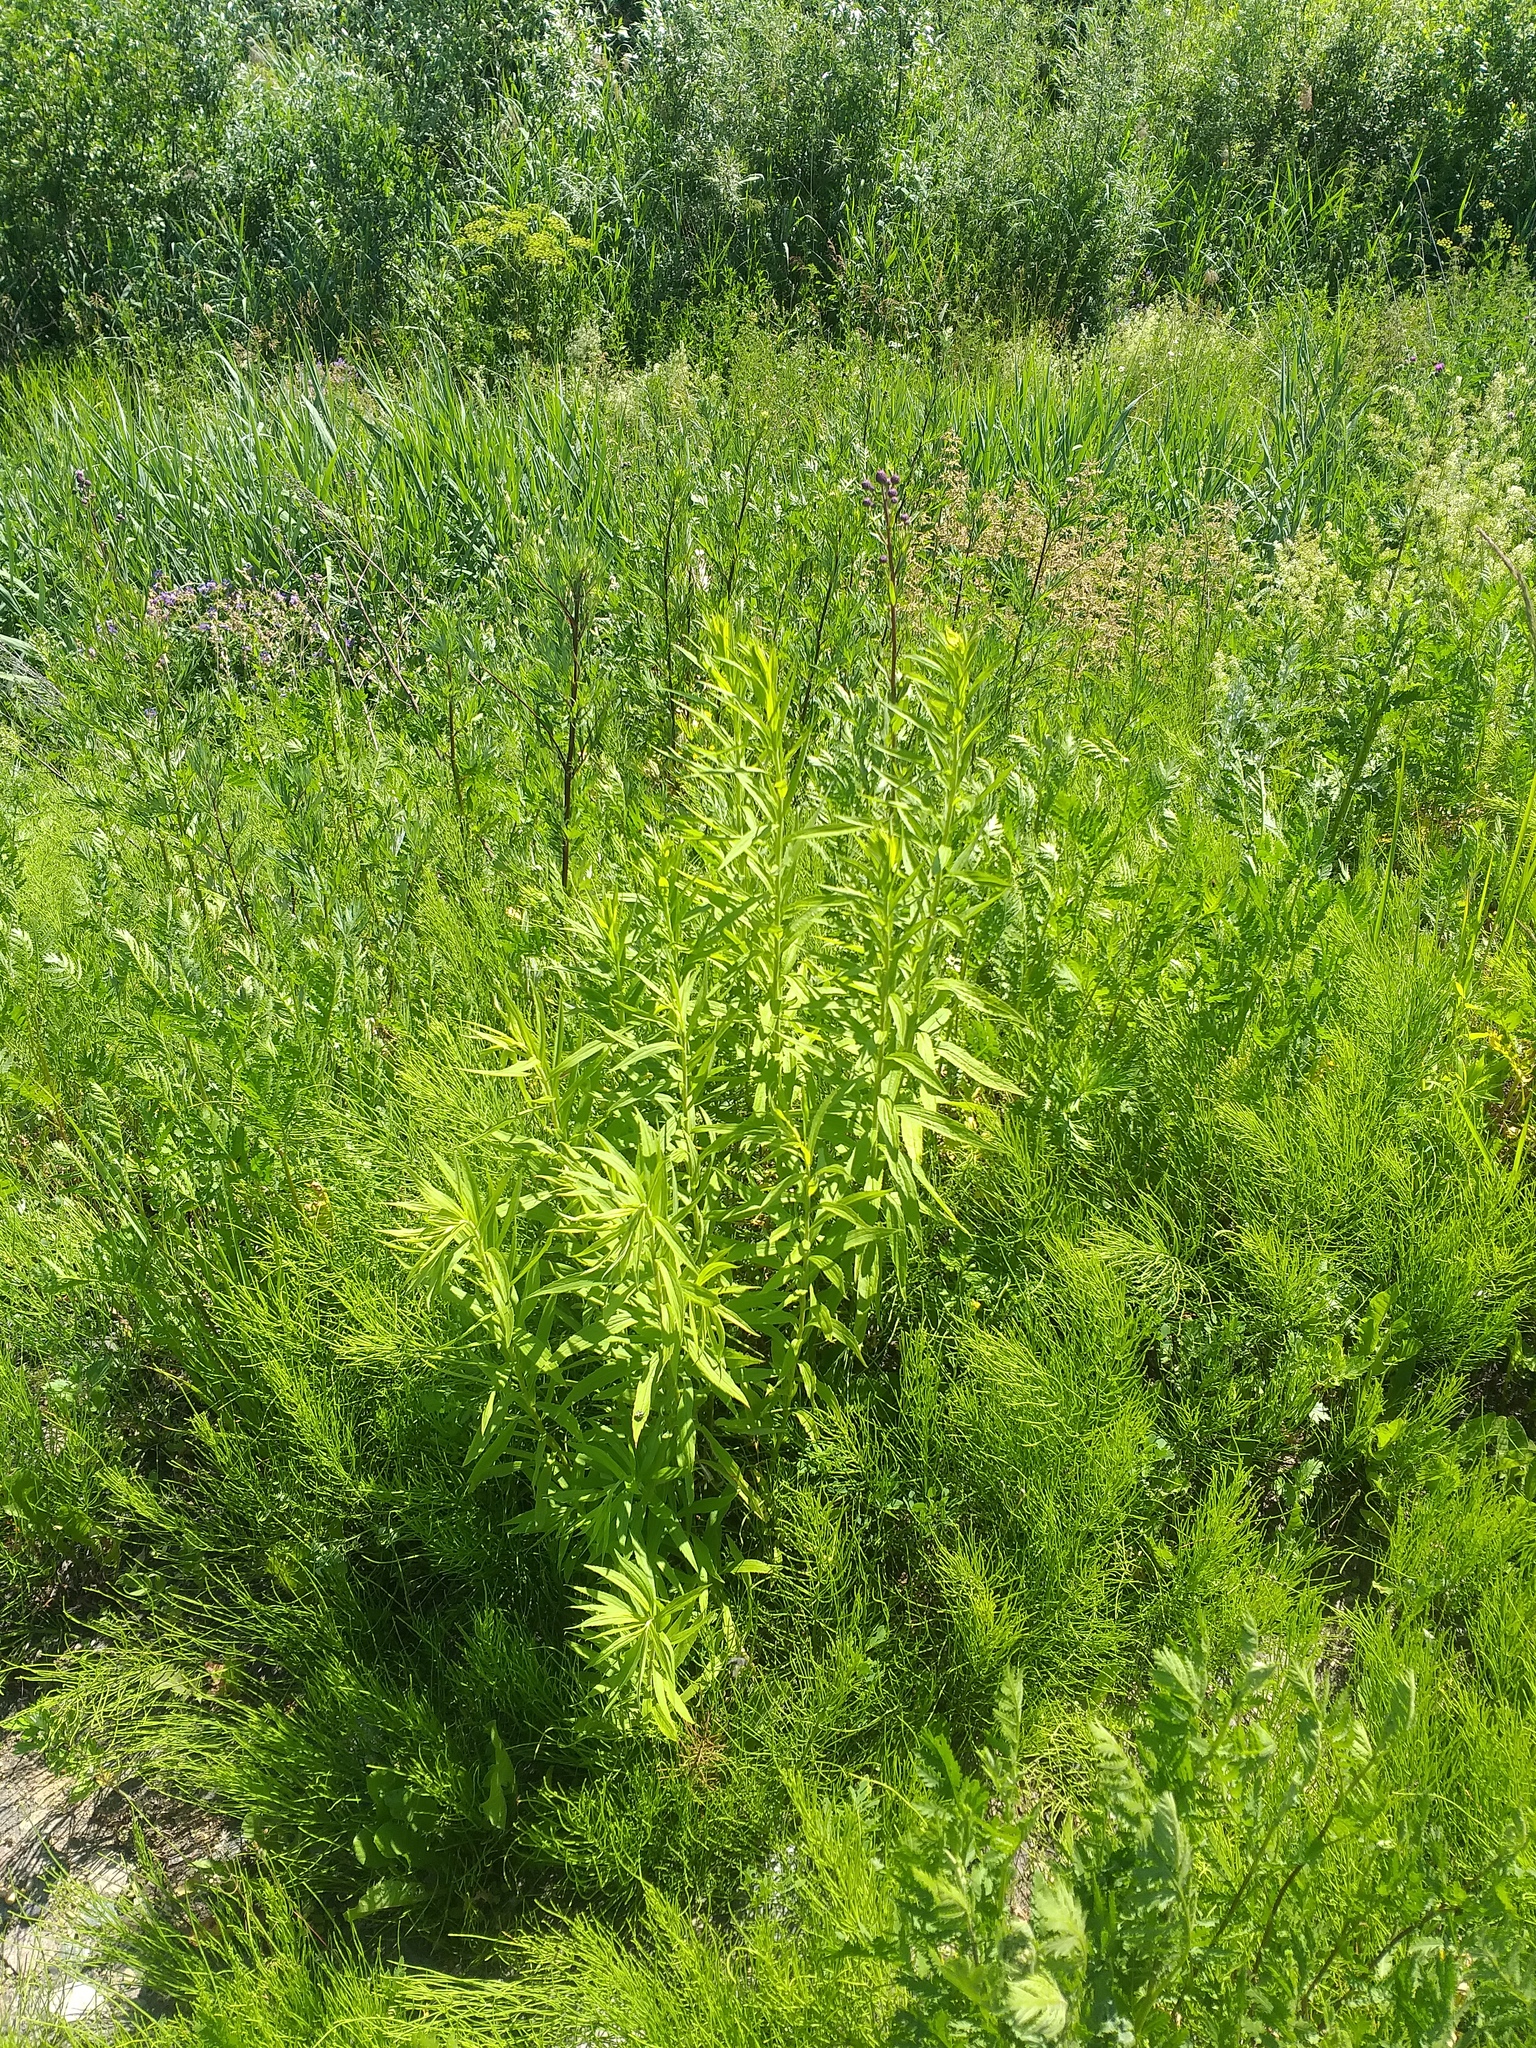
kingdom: Plantae
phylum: Tracheophyta
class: Magnoliopsida
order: Asterales
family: Asteraceae
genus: Solidago
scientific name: Solidago canadensis
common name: Canada goldenrod
